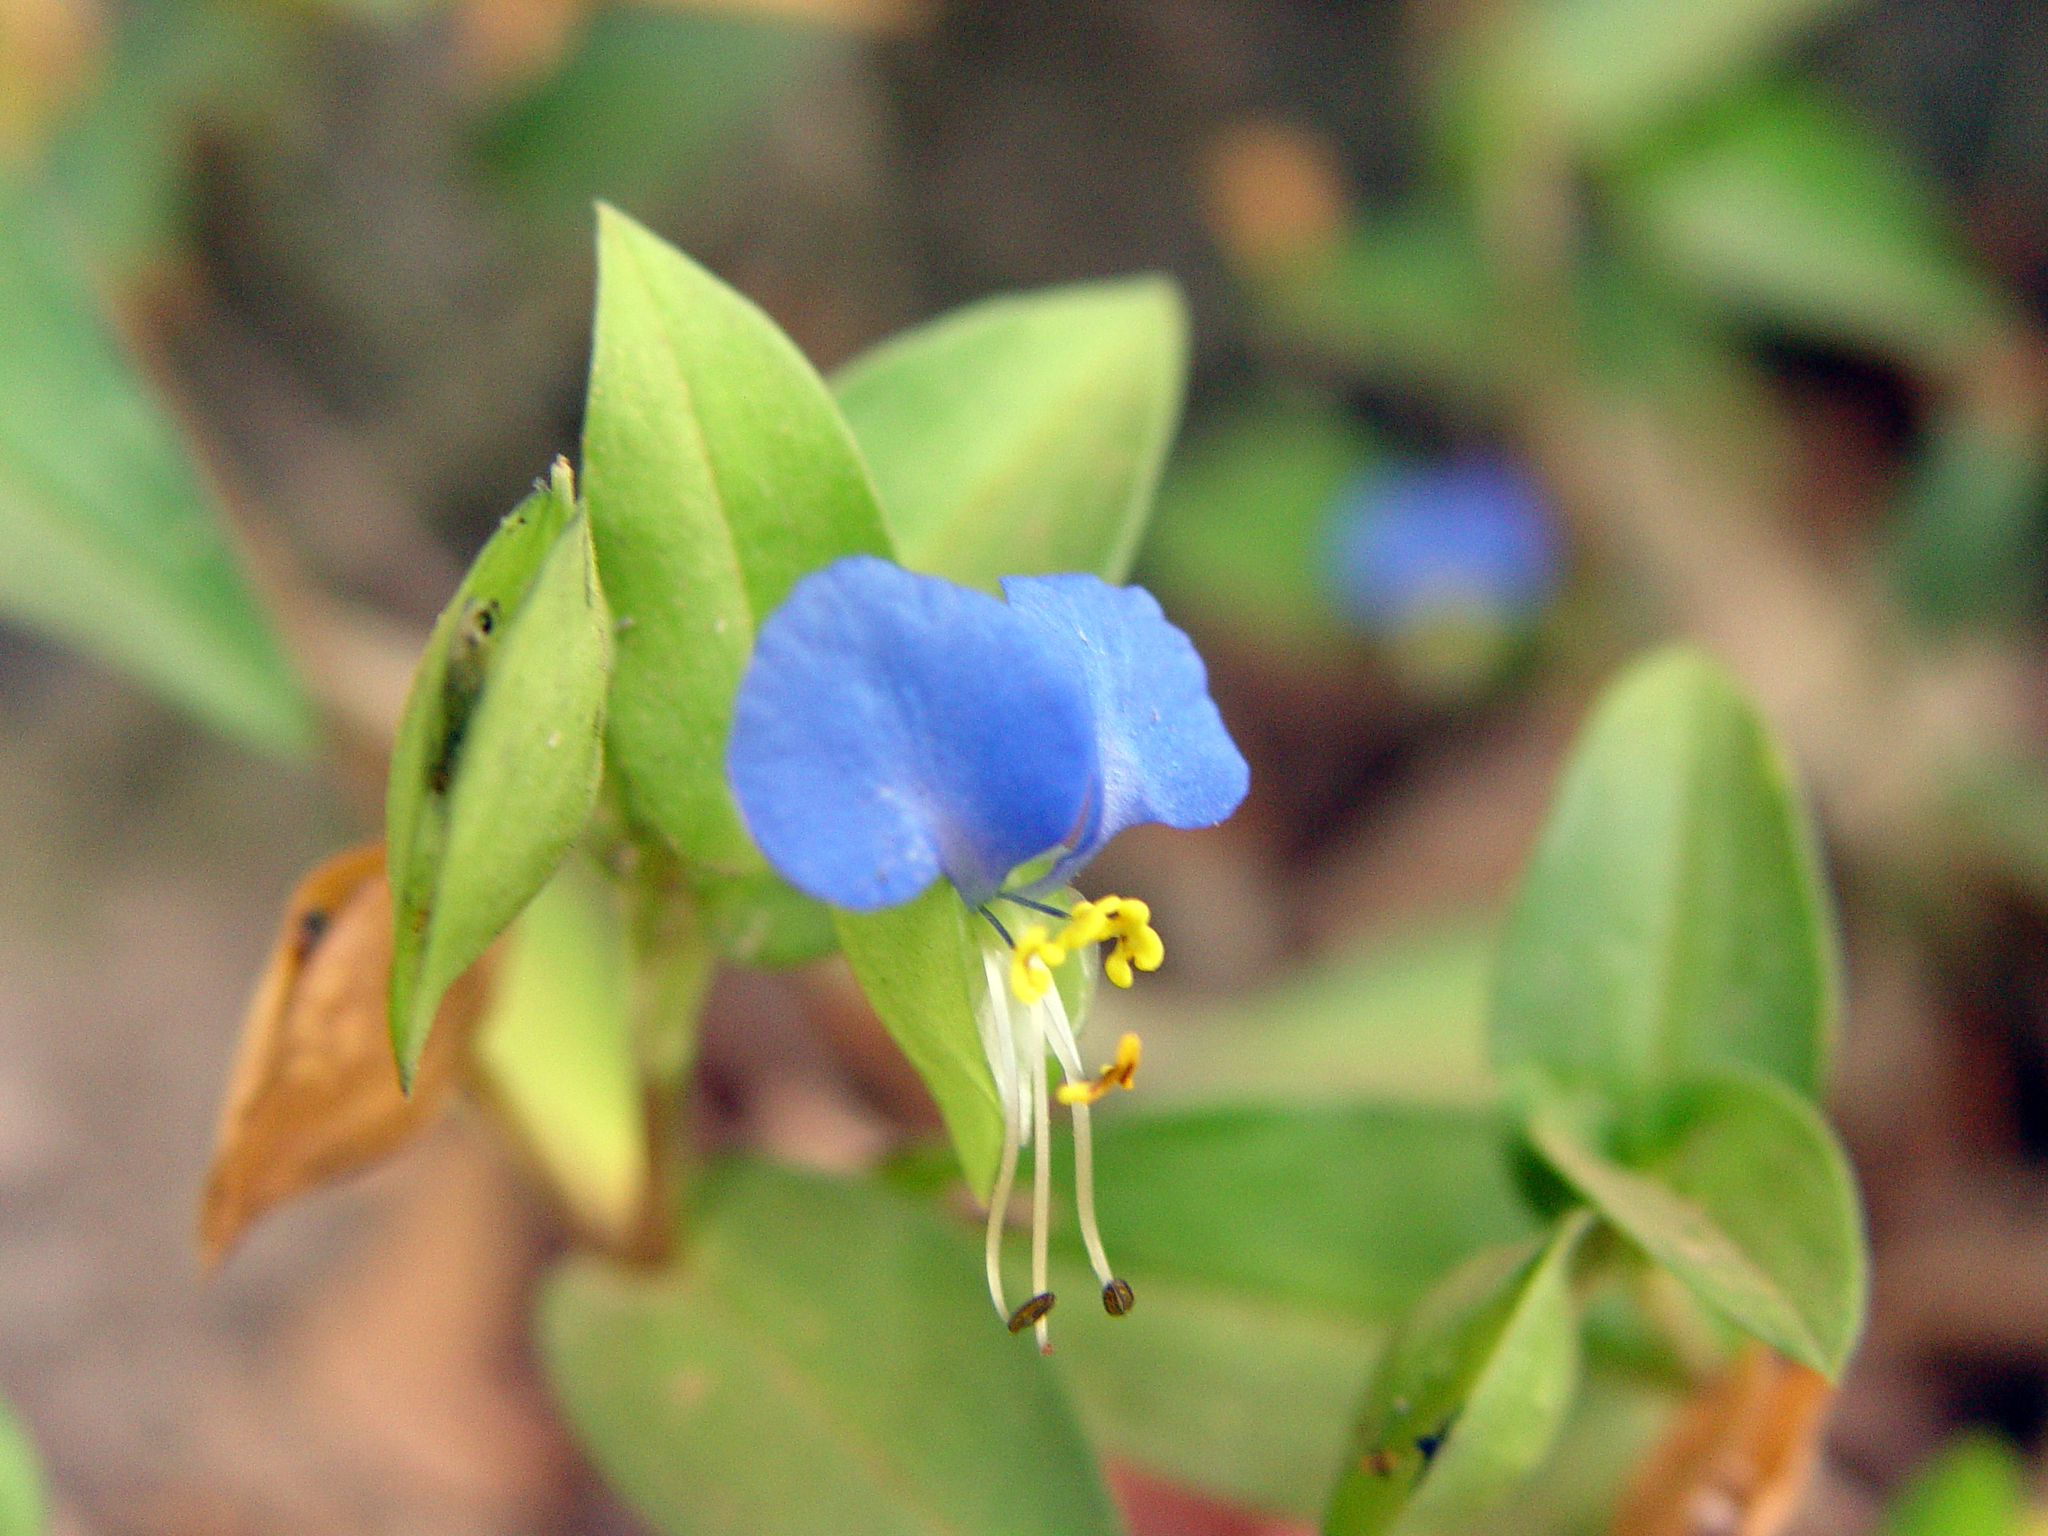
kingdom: Plantae
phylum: Tracheophyta
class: Liliopsida
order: Commelinales
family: Commelinaceae
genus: Commelina
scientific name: Commelina communis
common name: Asiatic dayflower
